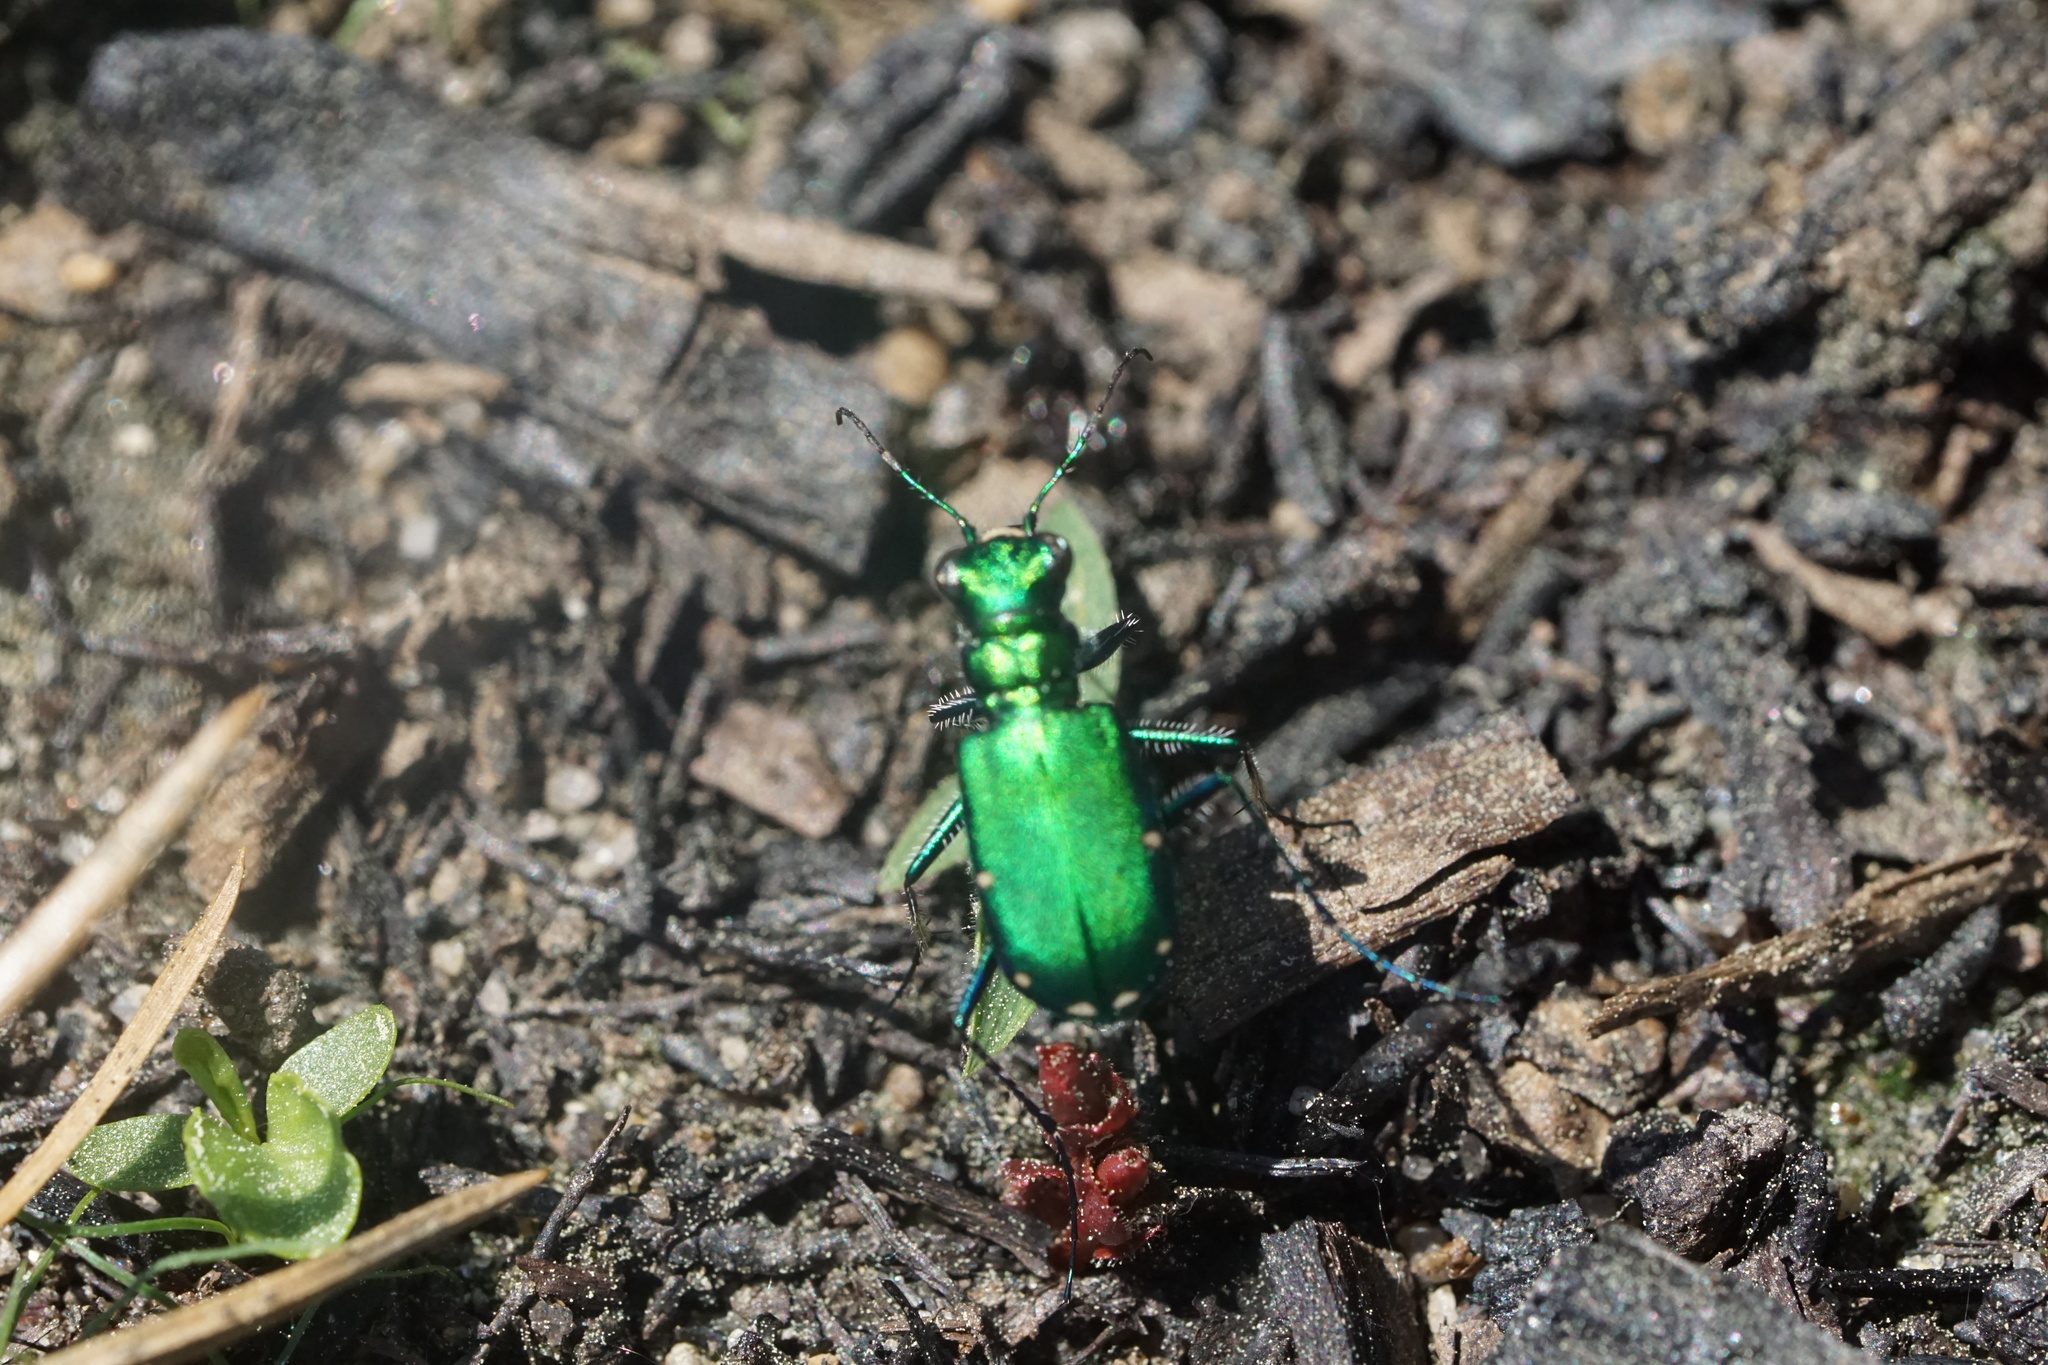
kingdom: Animalia
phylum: Arthropoda
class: Insecta
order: Coleoptera
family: Carabidae
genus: Cicindela
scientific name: Cicindela sexguttata
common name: Six-spotted tiger beetle
